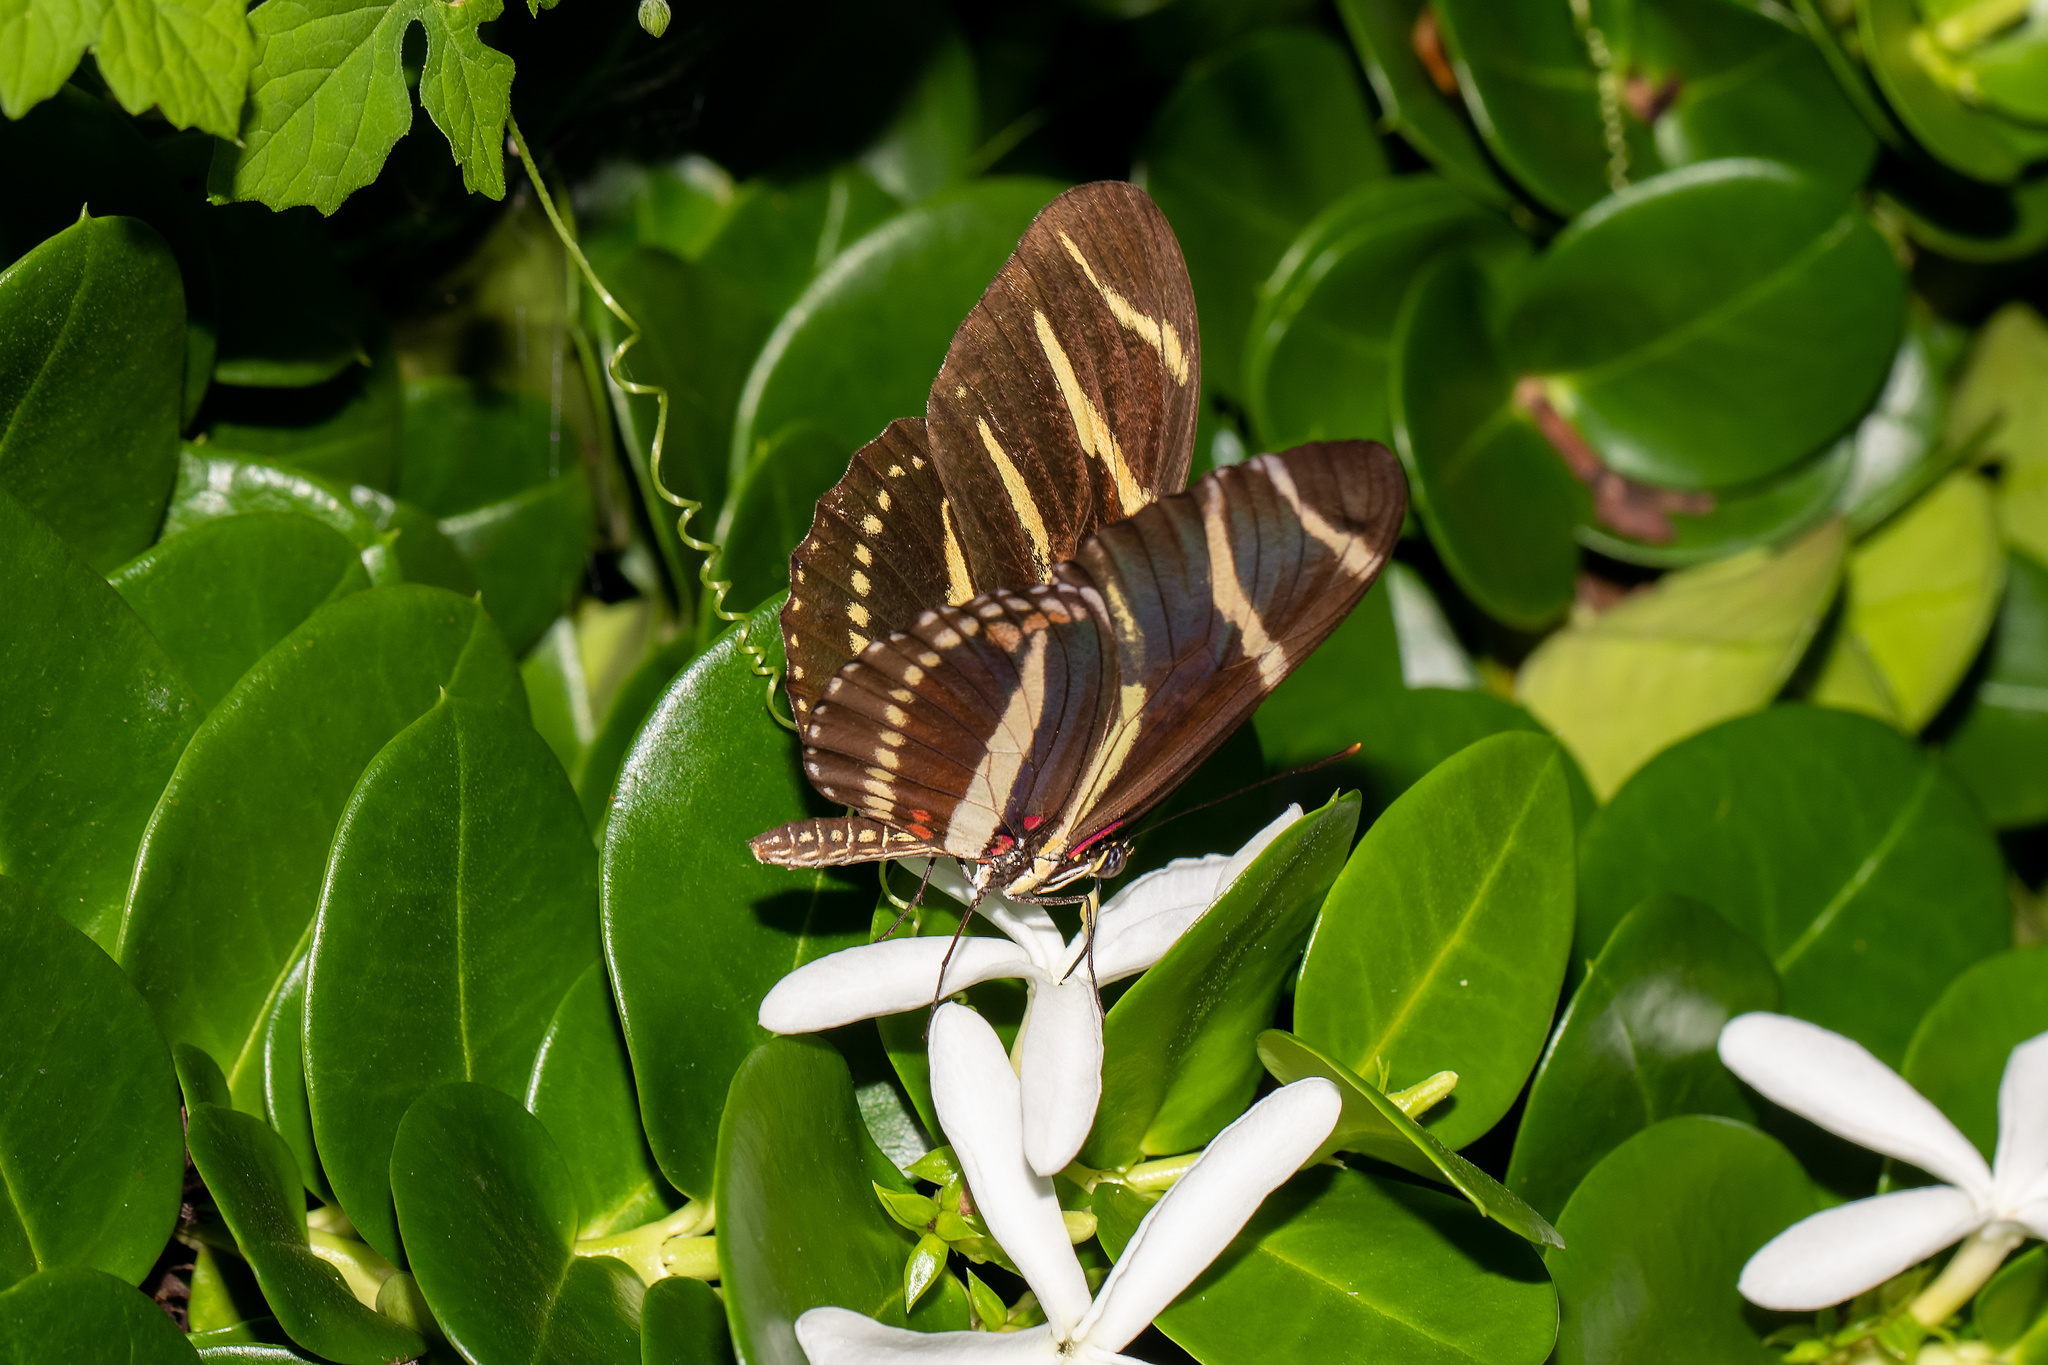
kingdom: Animalia
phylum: Arthropoda
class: Insecta
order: Lepidoptera
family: Nymphalidae
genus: Heliconius
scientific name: Heliconius charithonia
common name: Zebra long wing
